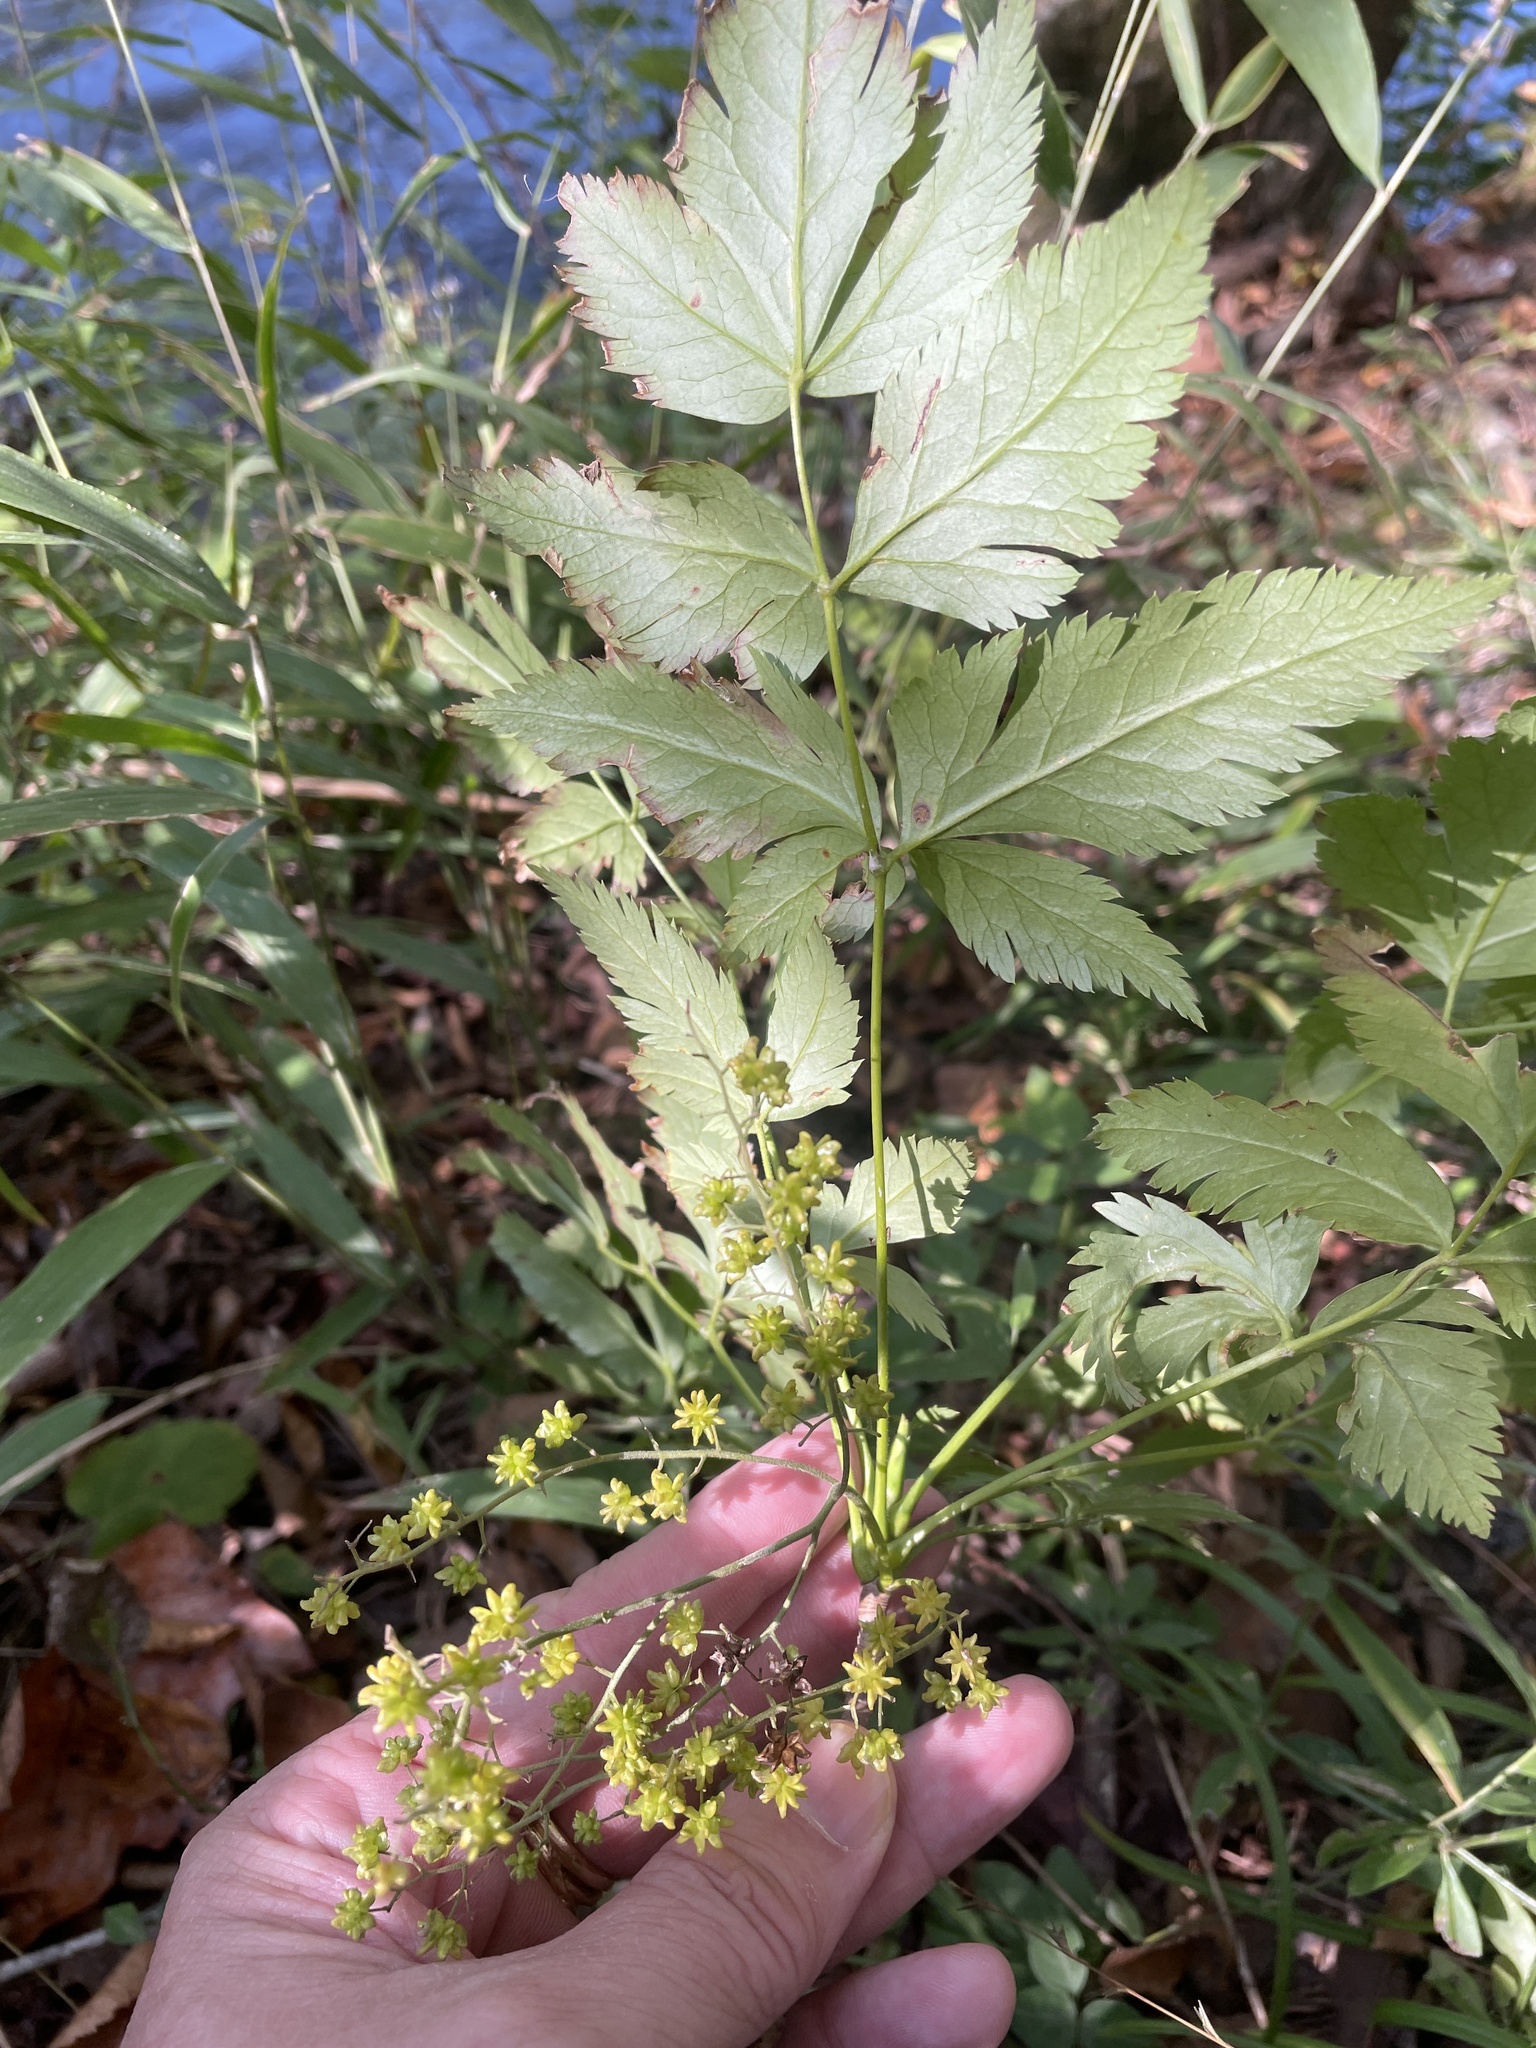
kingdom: Plantae
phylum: Tracheophyta
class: Magnoliopsida
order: Ranunculales
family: Ranunculaceae
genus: Xanthorhiza
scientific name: Xanthorhiza simplicissima
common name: Yellowroot
